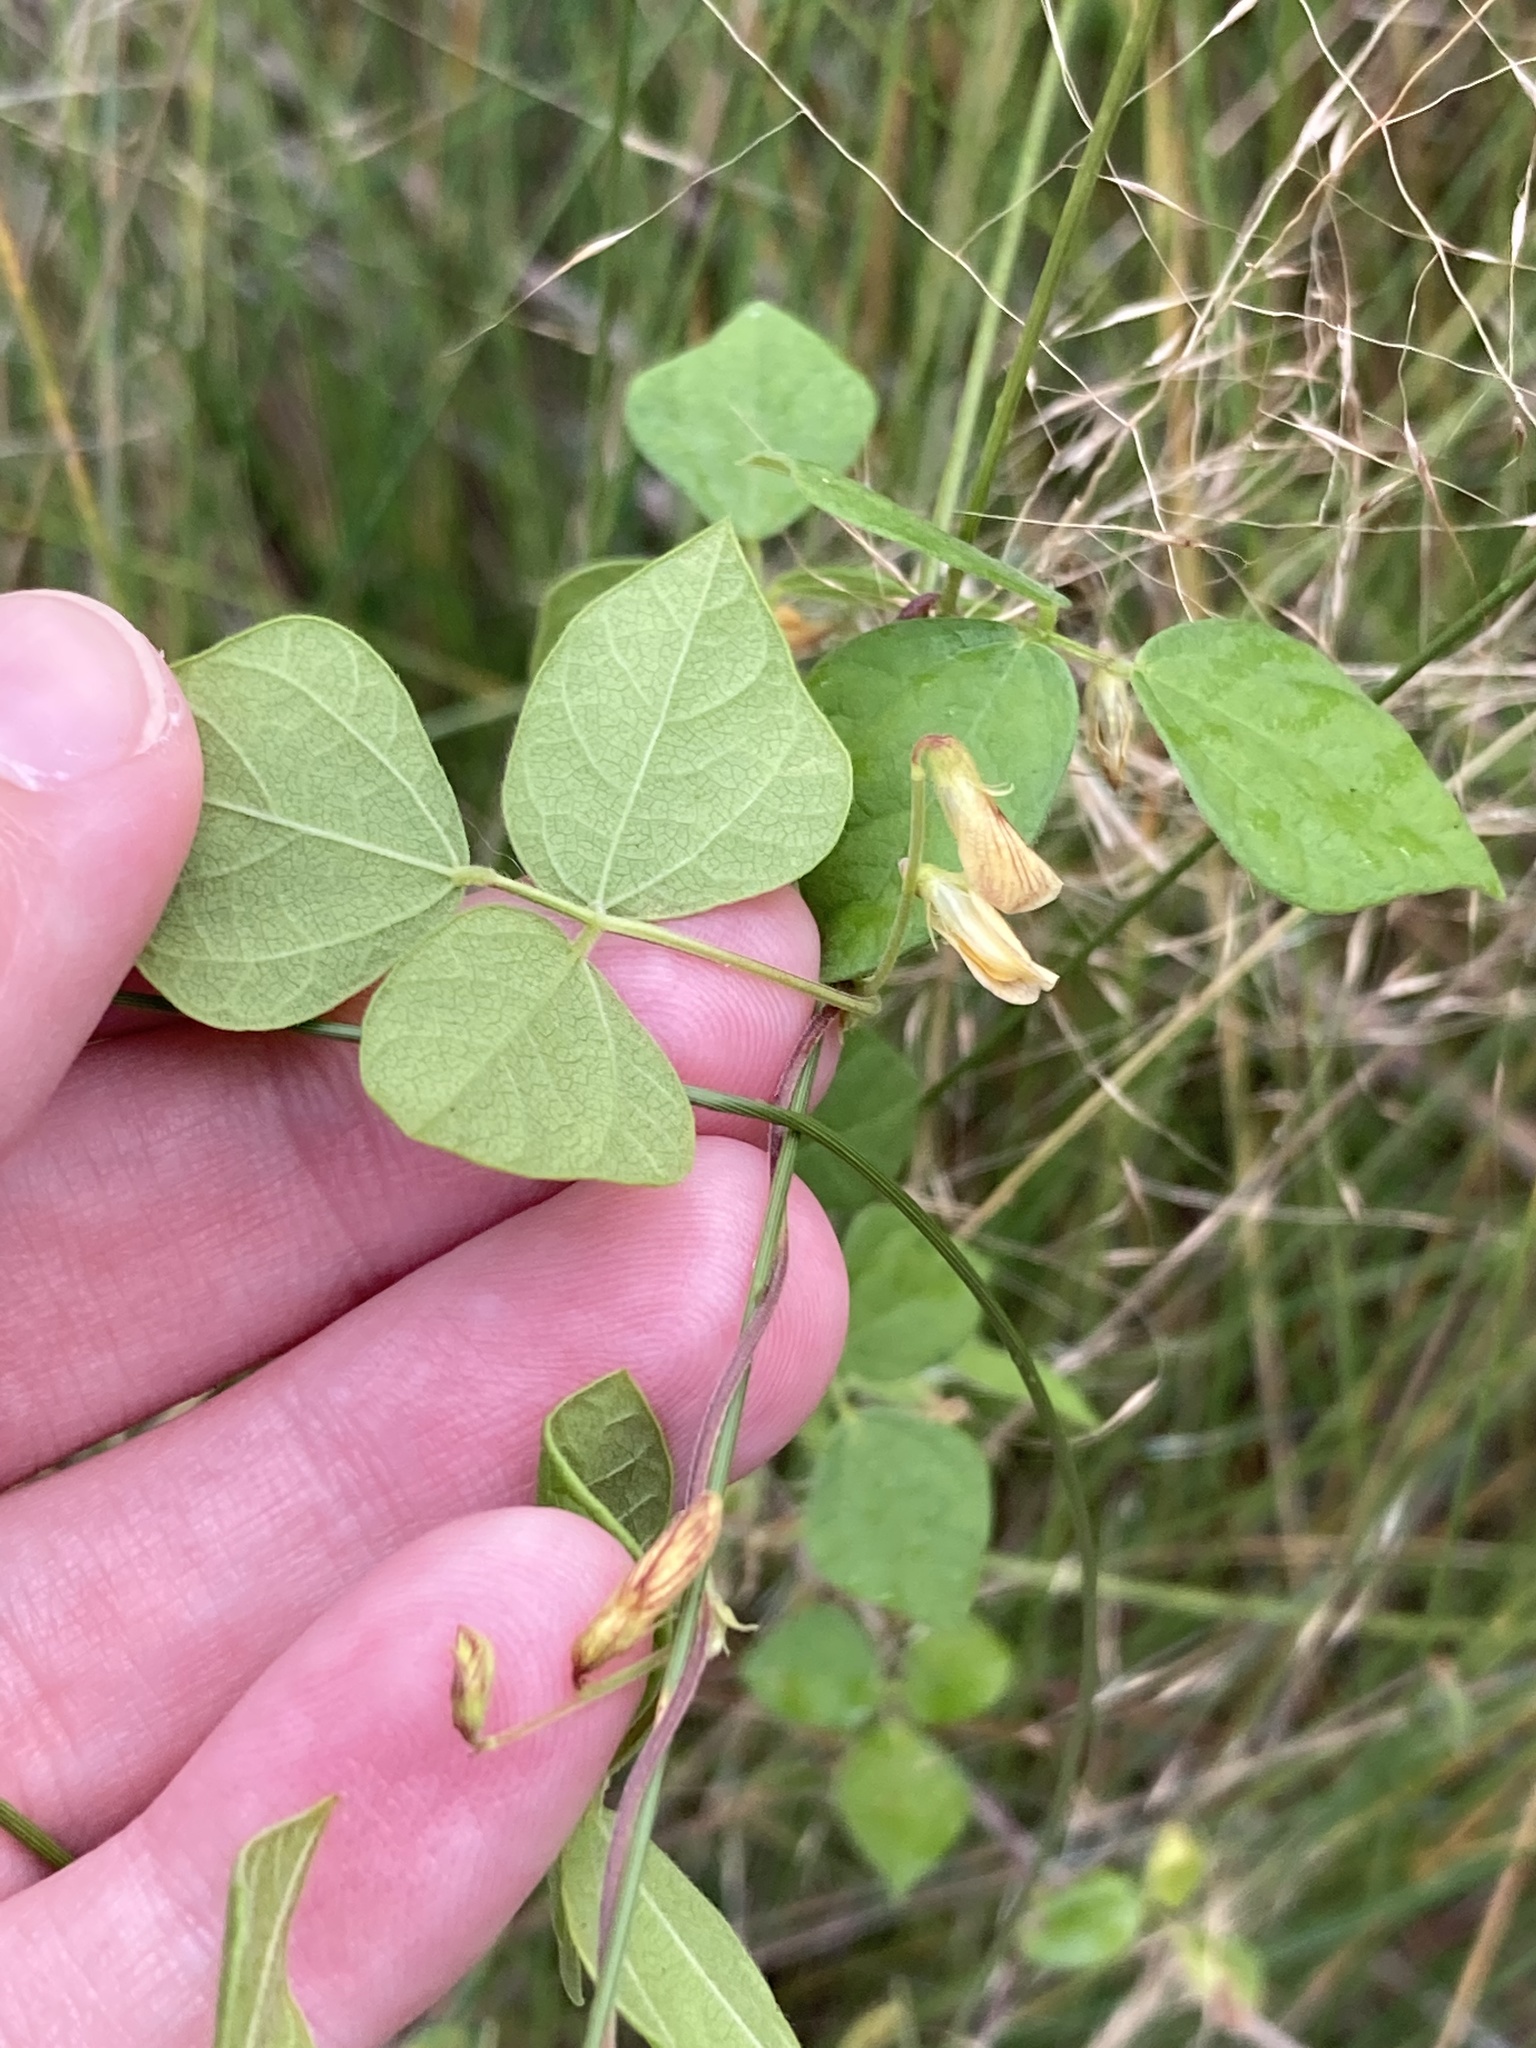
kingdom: Plantae
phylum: Tracheophyta
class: Magnoliopsida
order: Fabales
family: Fabaceae
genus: Rhynchosia
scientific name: Rhynchosia minima
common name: Least snoutbean
